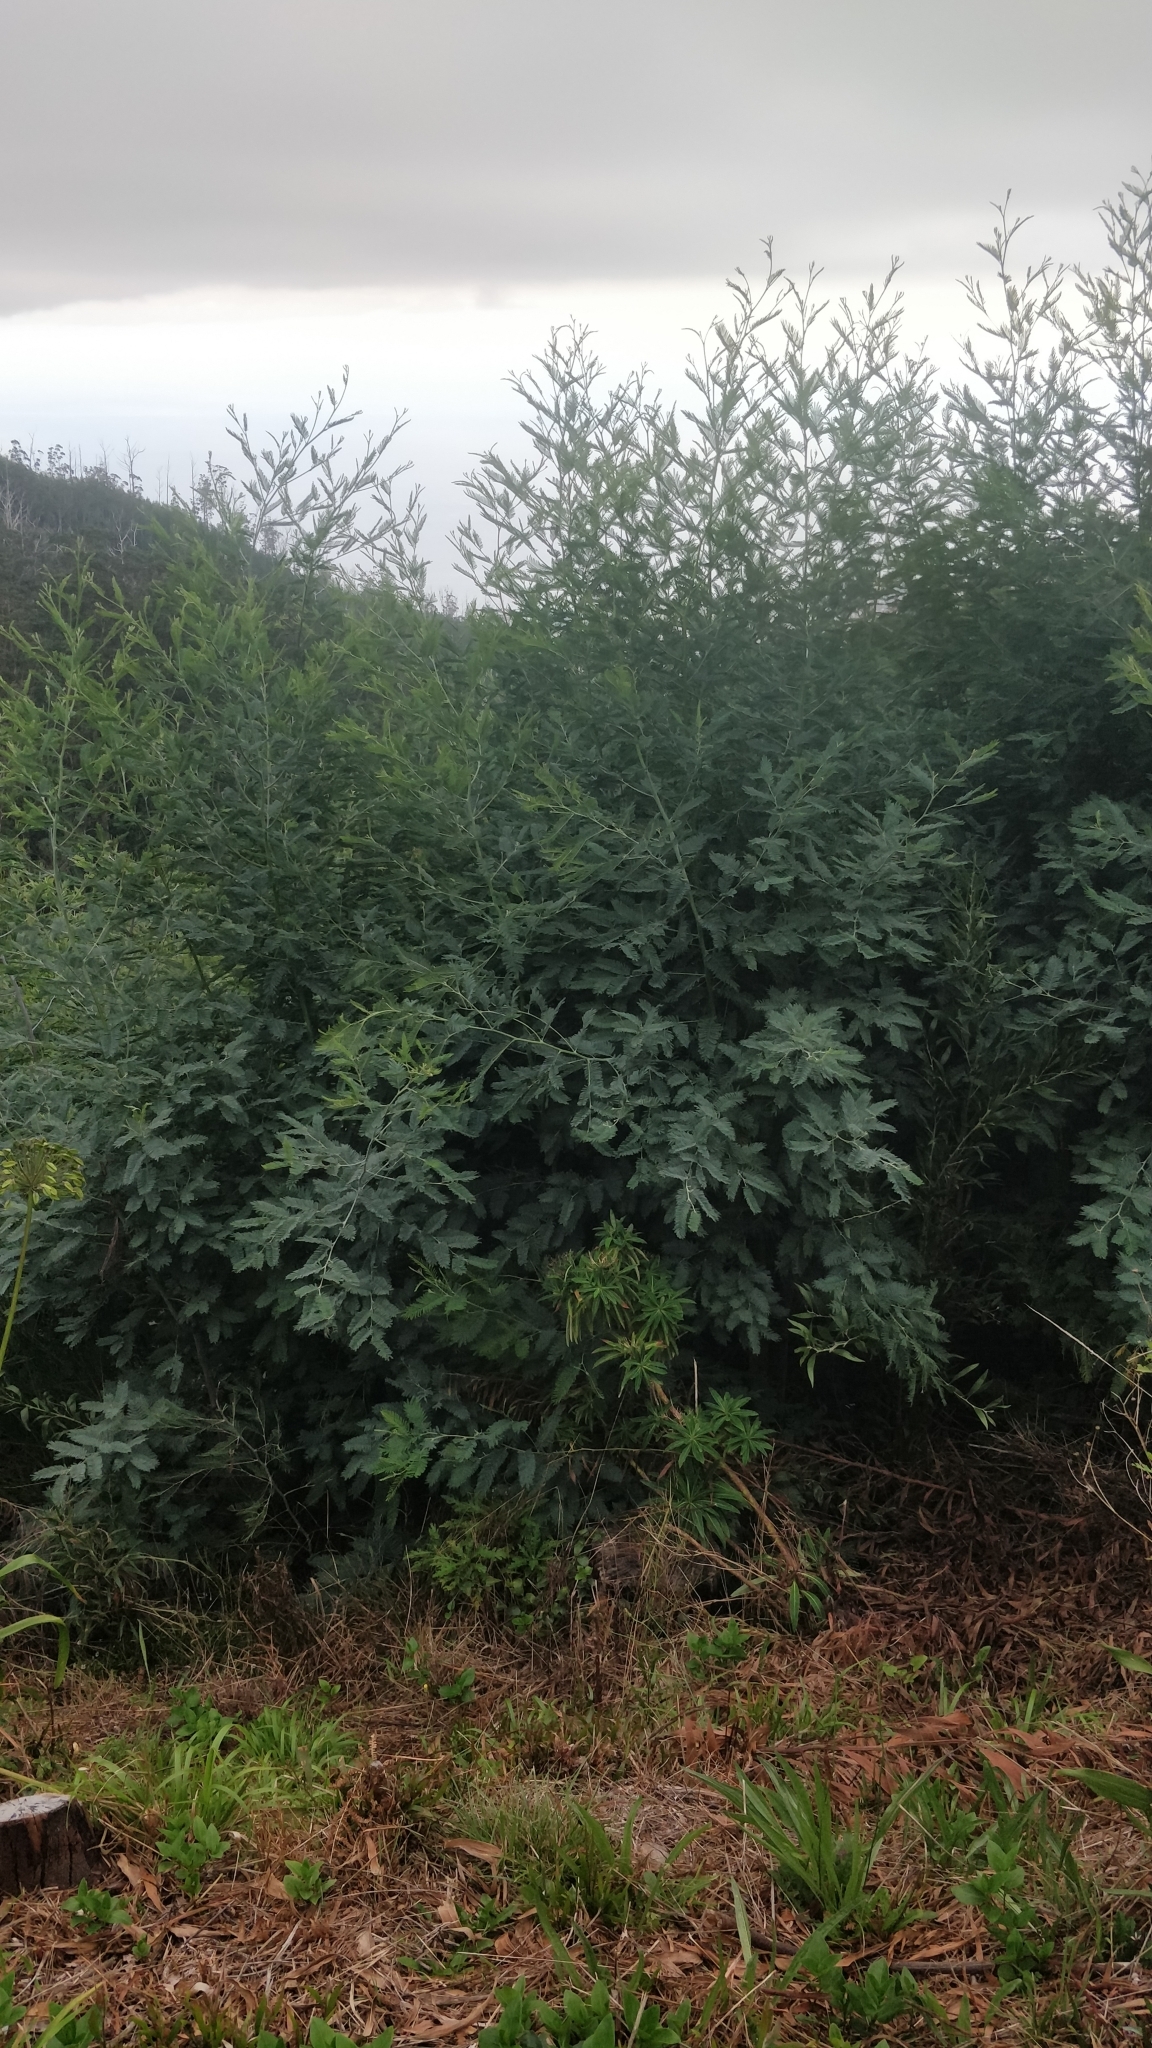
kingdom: Plantae
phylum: Tracheophyta
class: Magnoliopsida
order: Fabales
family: Fabaceae
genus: Acacia
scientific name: Acacia mearnsii
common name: Black wattle
